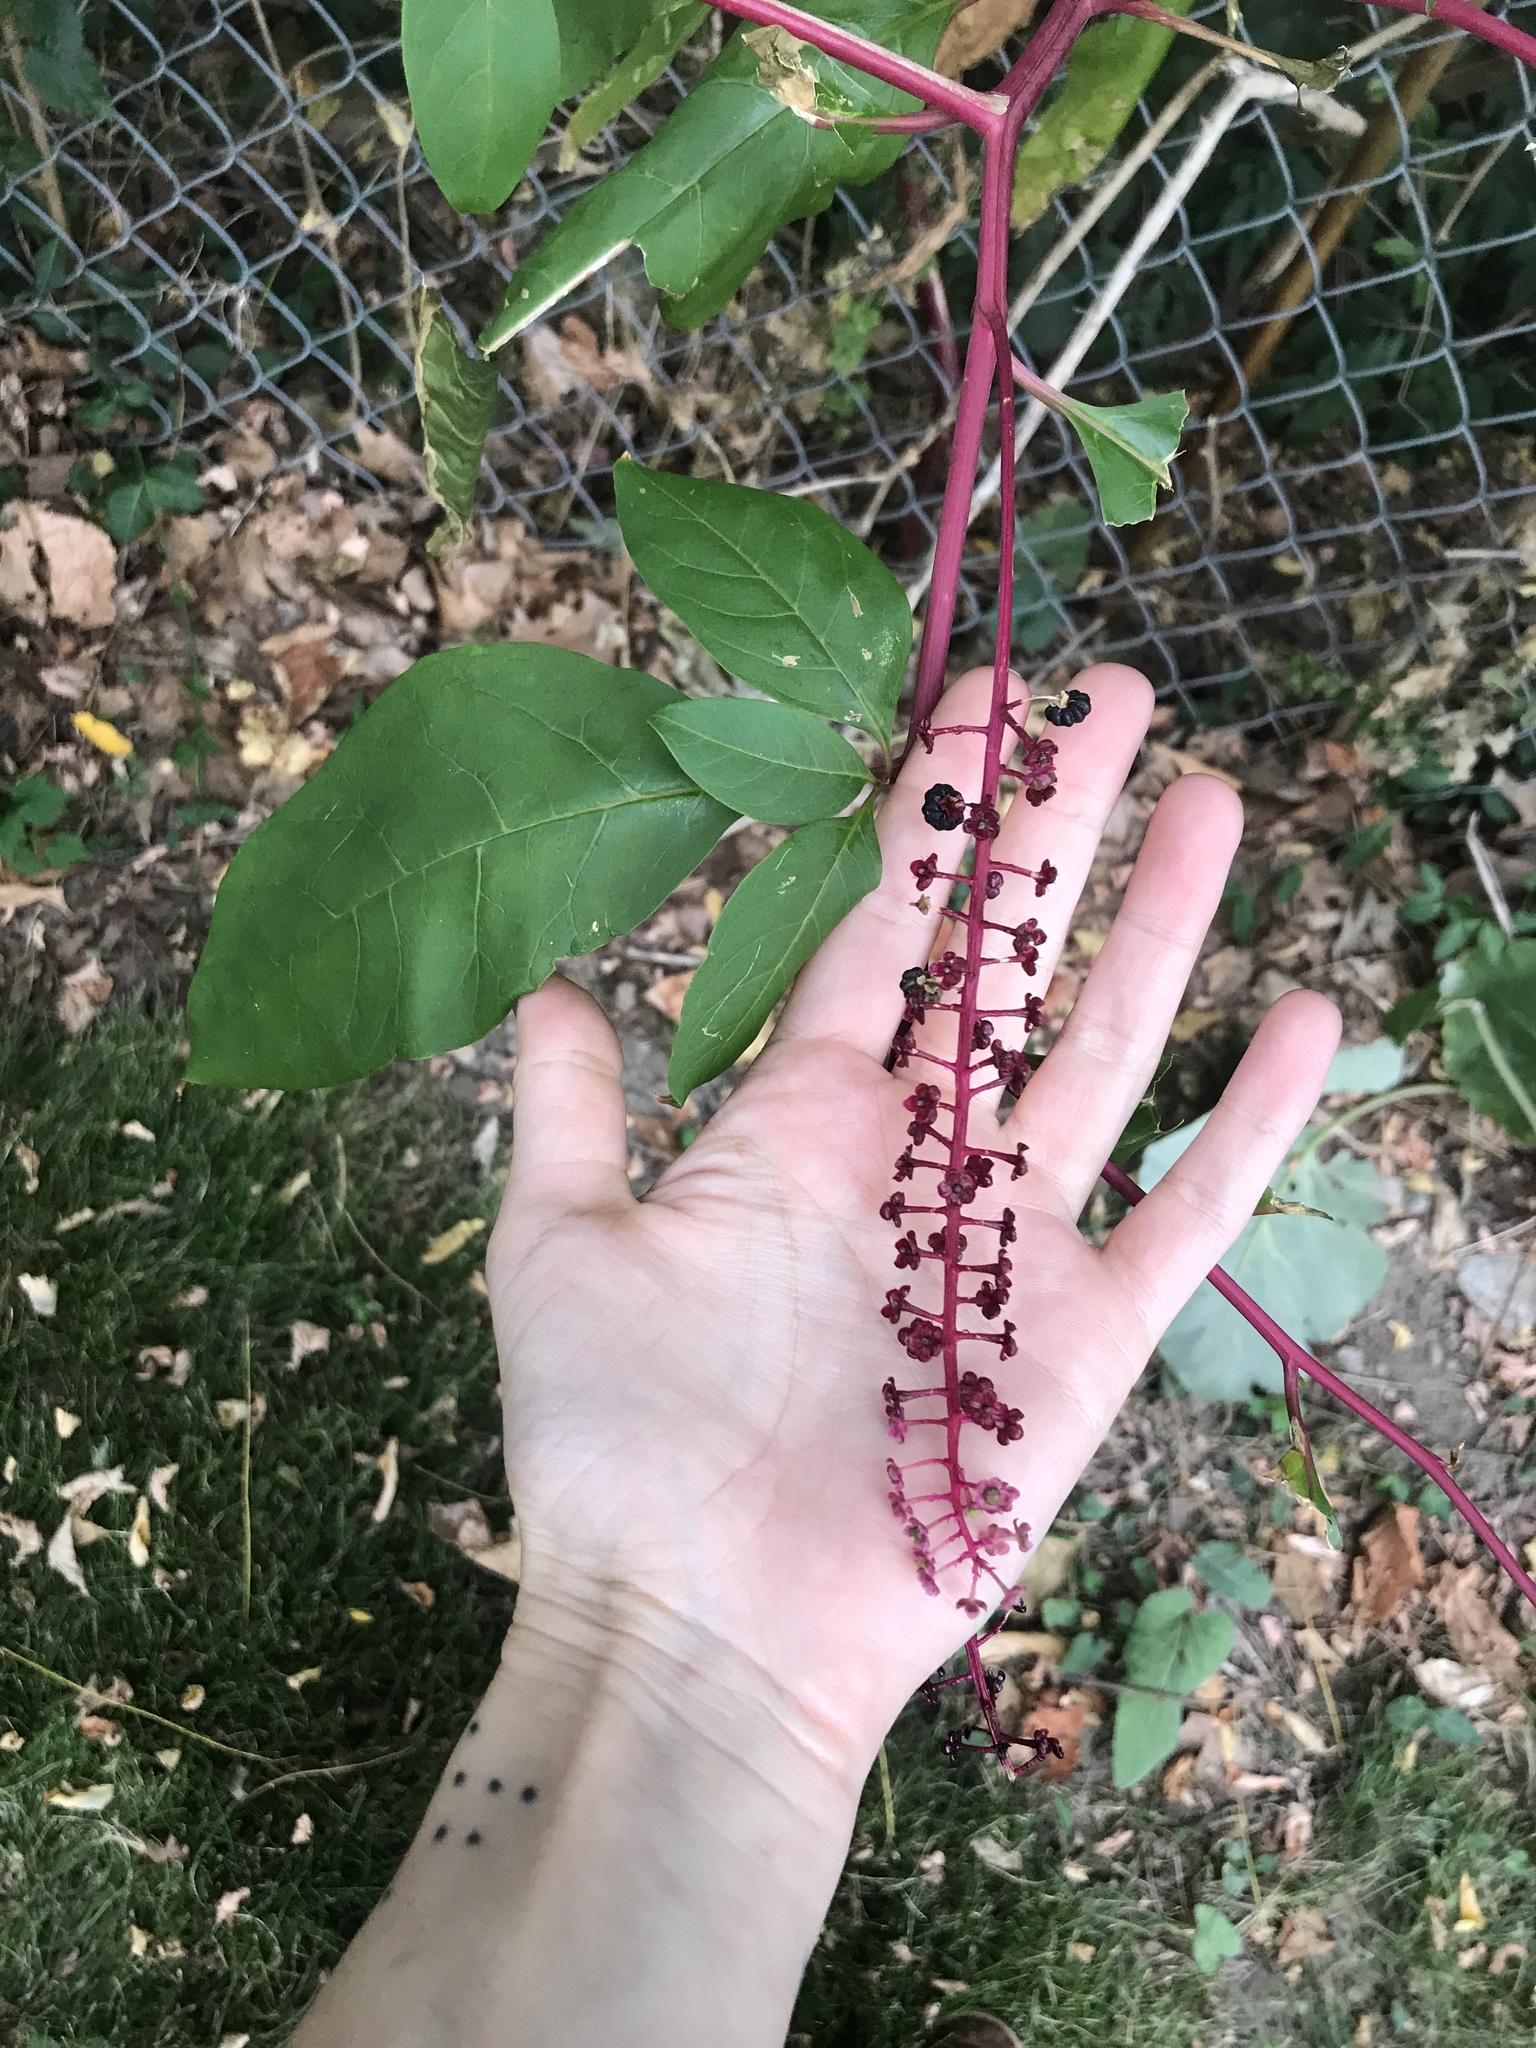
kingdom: Plantae
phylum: Tracheophyta
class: Magnoliopsida
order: Caryophyllales
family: Phytolaccaceae
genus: Phytolacca
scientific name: Phytolacca americana
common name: American pokeweed
